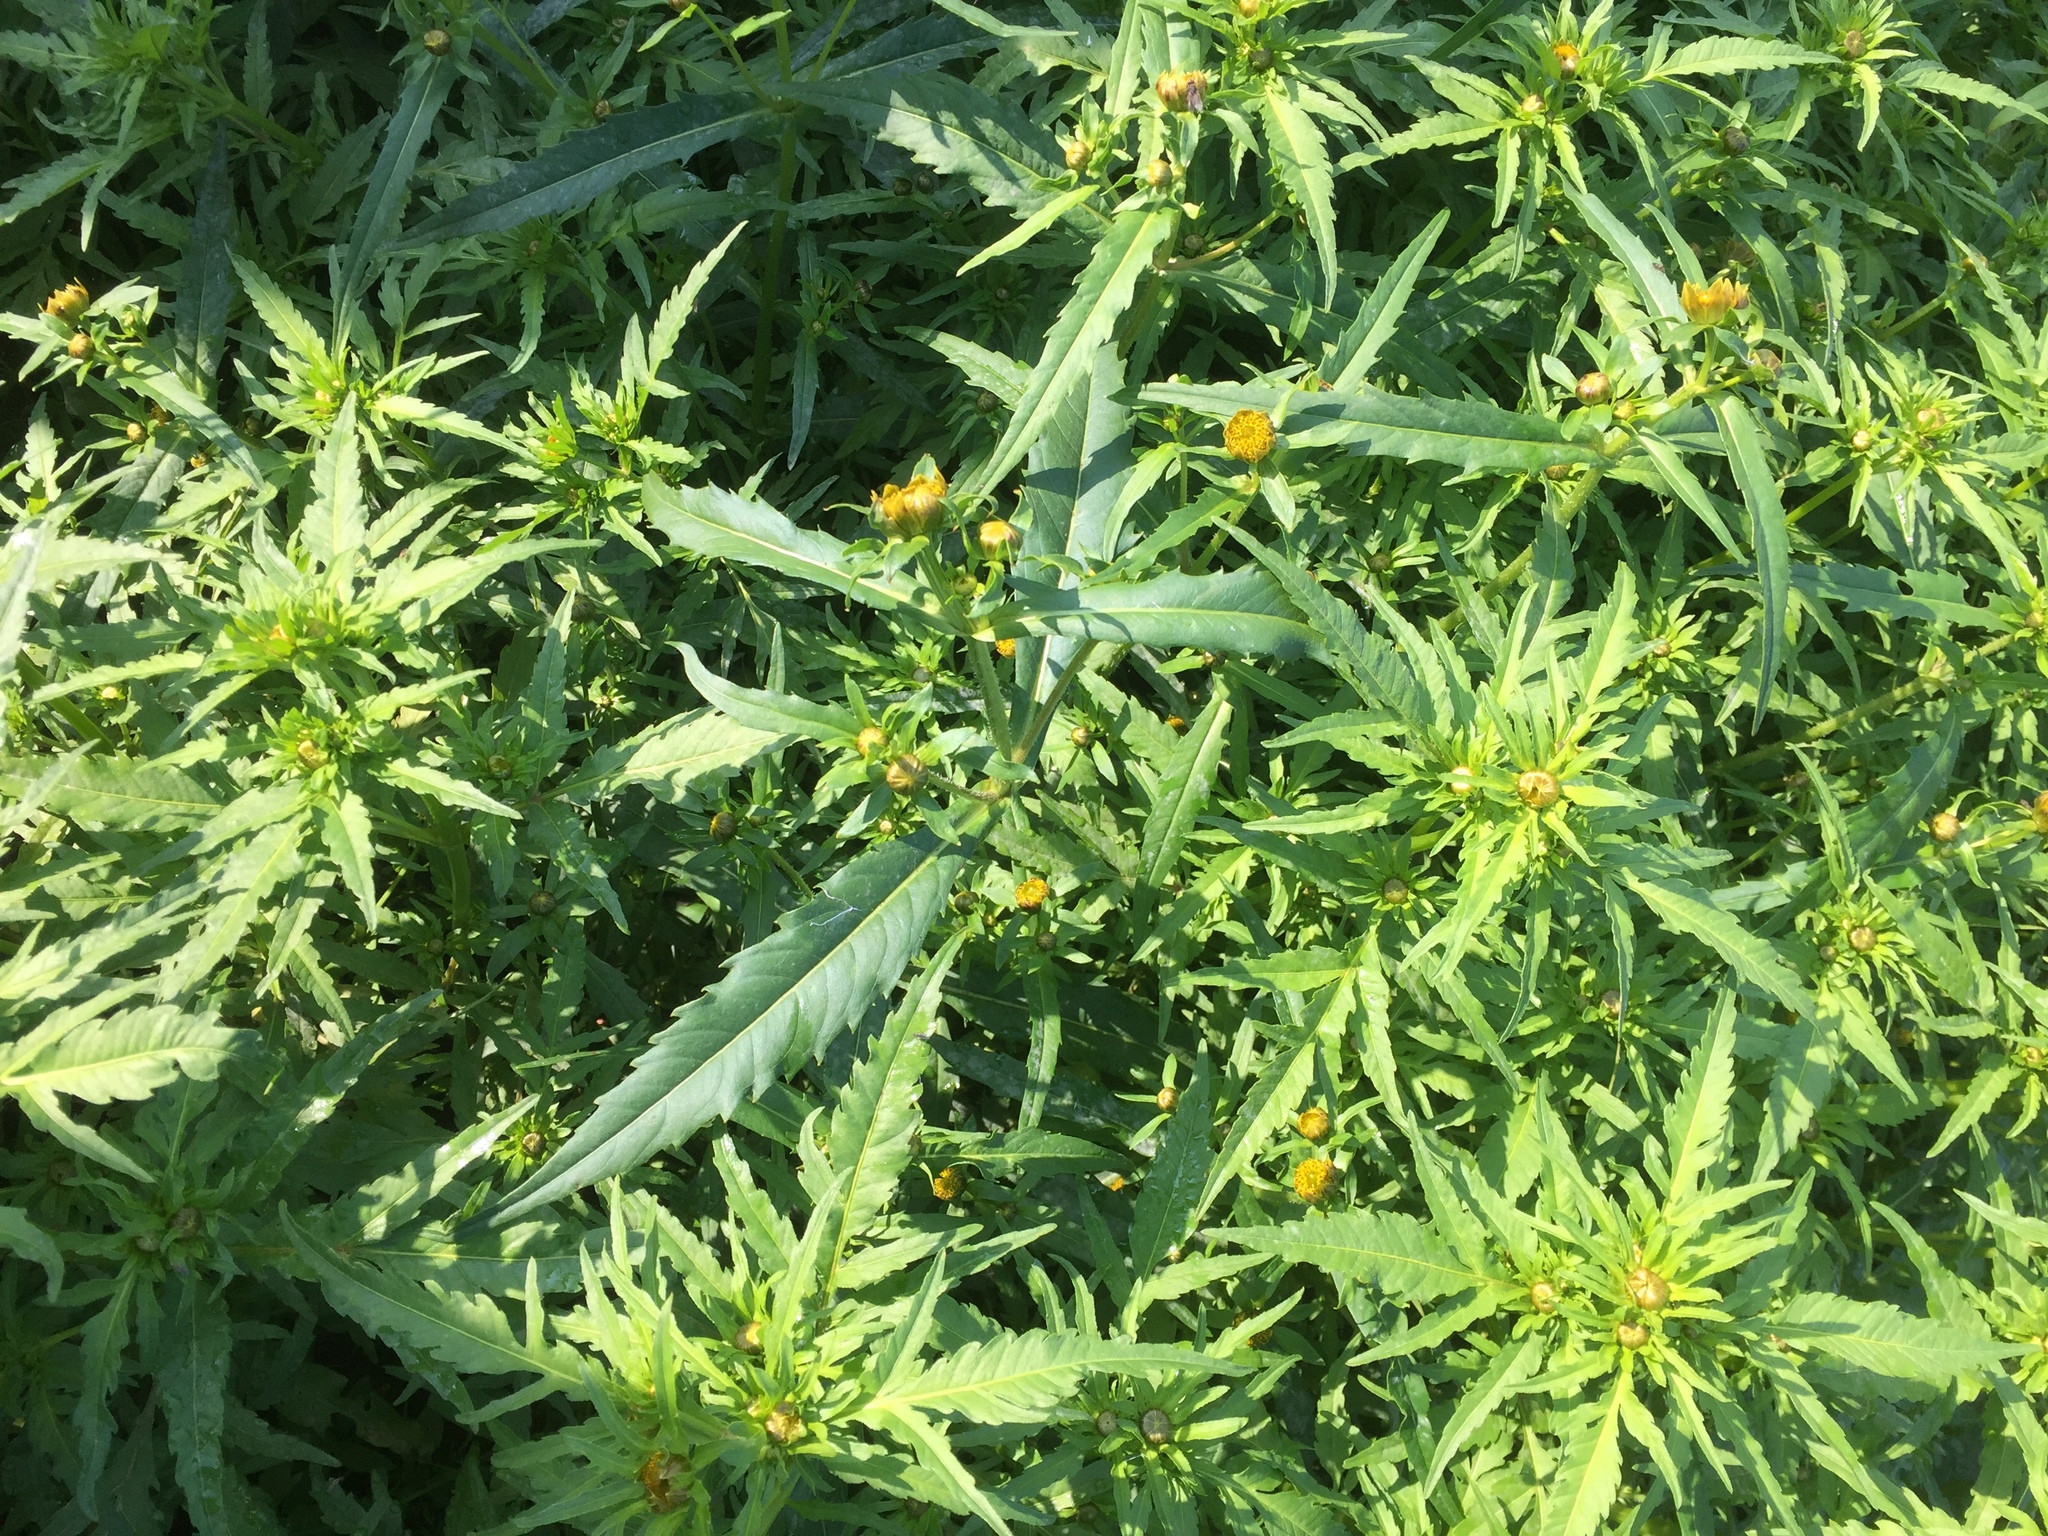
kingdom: Plantae
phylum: Tracheophyta
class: Magnoliopsida
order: Asterales
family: Asteraceae
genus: Bidens
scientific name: Bidens cernua
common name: Nodding bur-marigold
